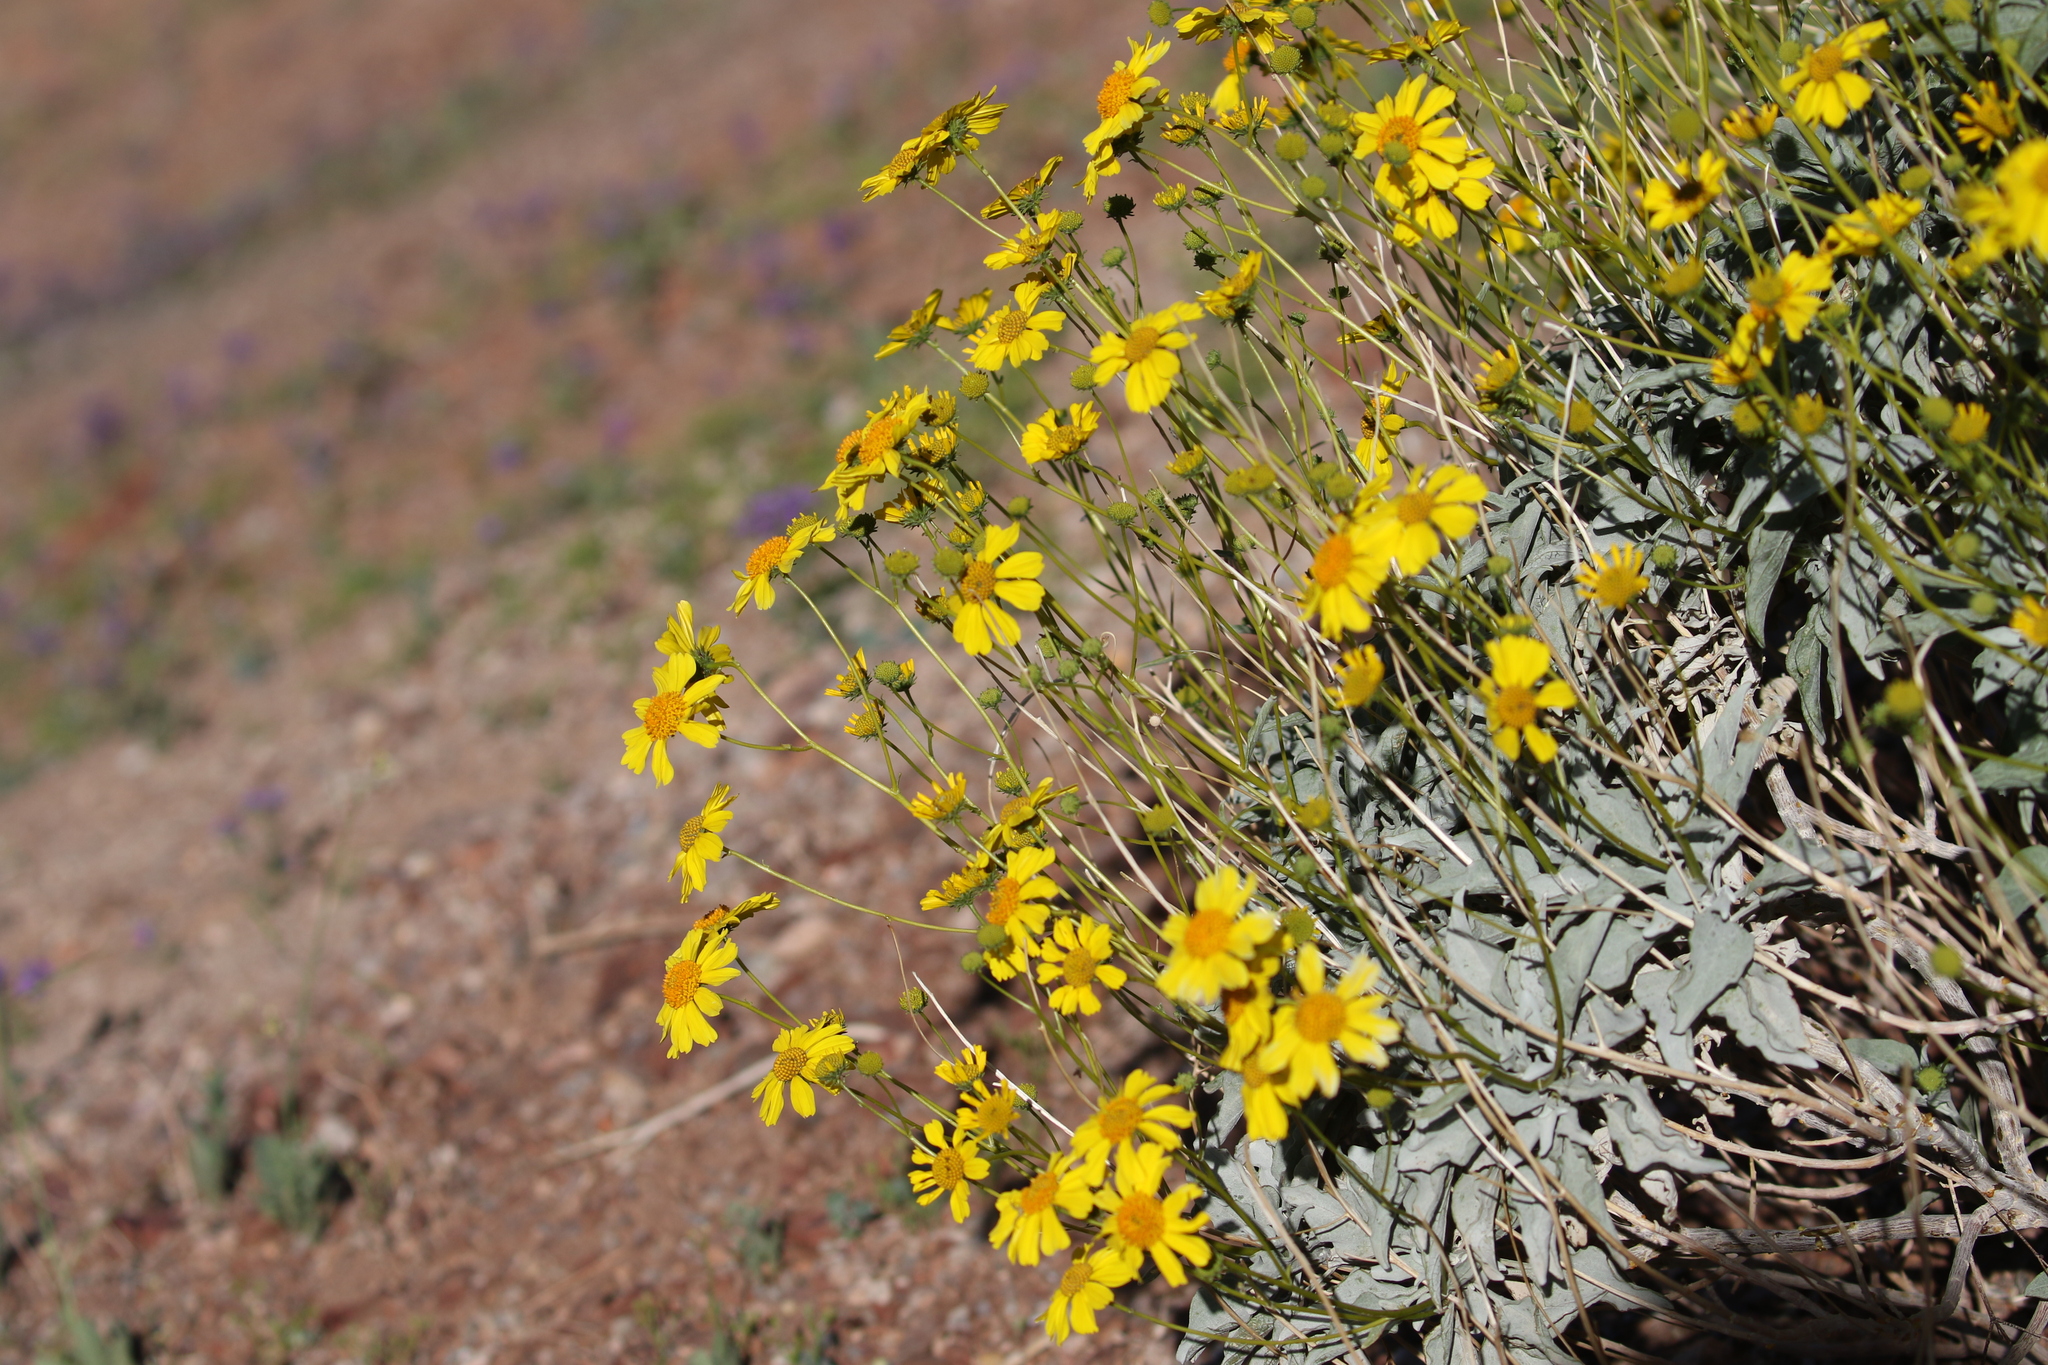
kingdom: Plantae
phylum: Tracheophyta
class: Magnoliopsida
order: Asterales
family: Asteraceae
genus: Encelia
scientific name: Encelia farinosa
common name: Brittlebush
